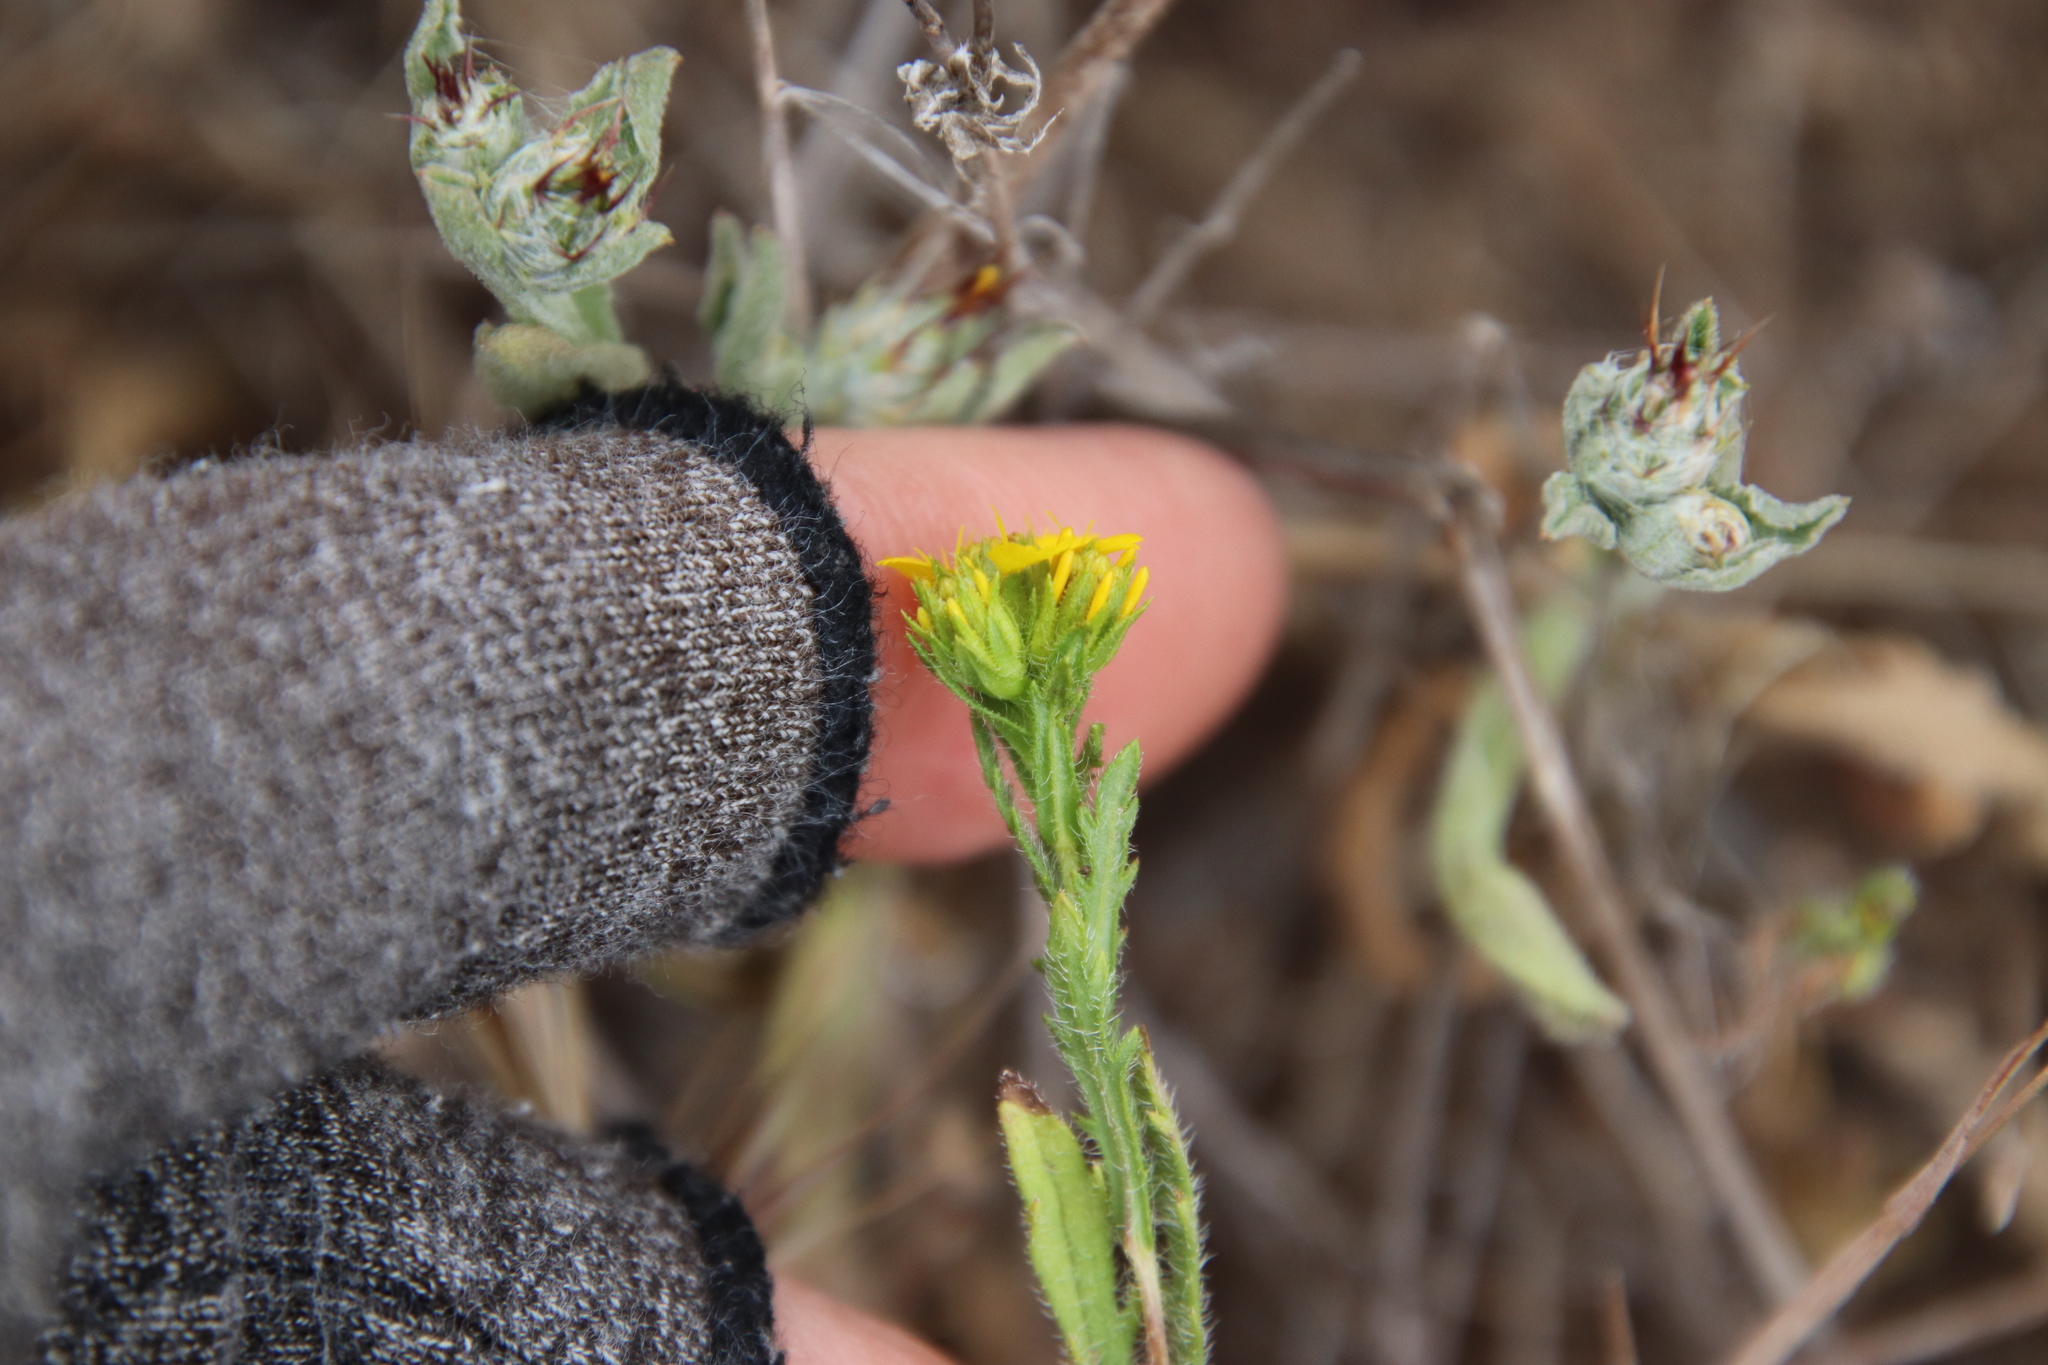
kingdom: Plantae
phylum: Tracheophyta
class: Magnoliopsida
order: Asterales
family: Asteraceae
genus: Deinandra
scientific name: Deinandra fasciculata
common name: Clustered tarweed
